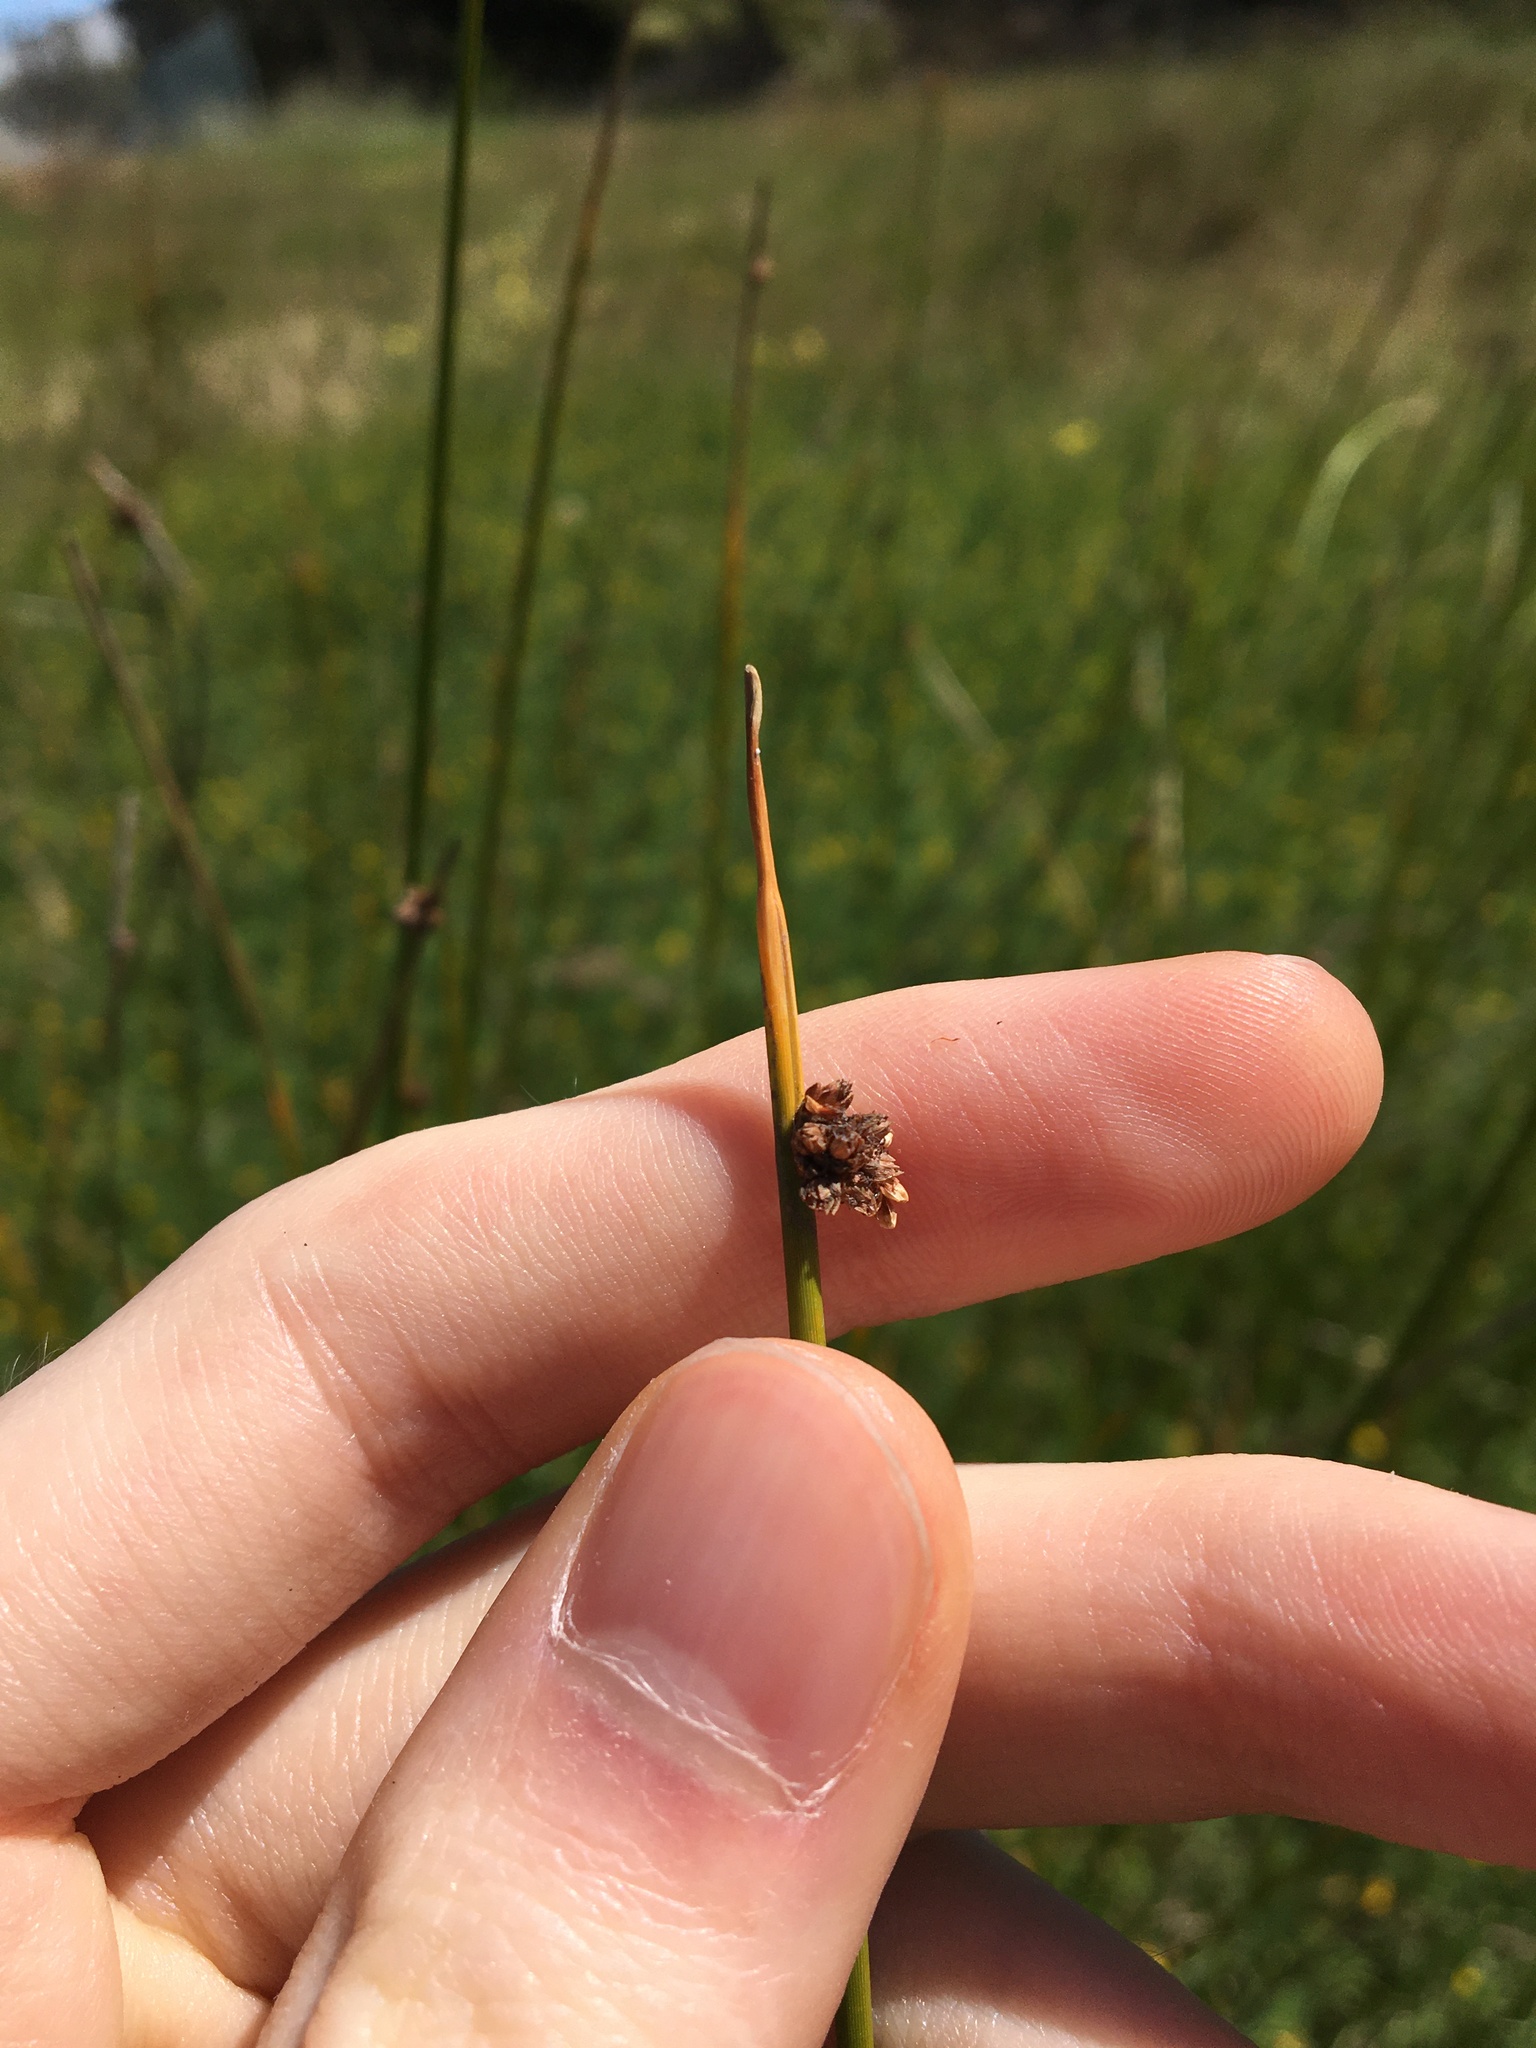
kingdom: Plantae
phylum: Tracheophyta
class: Liliopsida
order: Poales
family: Cyperaceae
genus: Ficinia
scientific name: Ficinia nodosa
